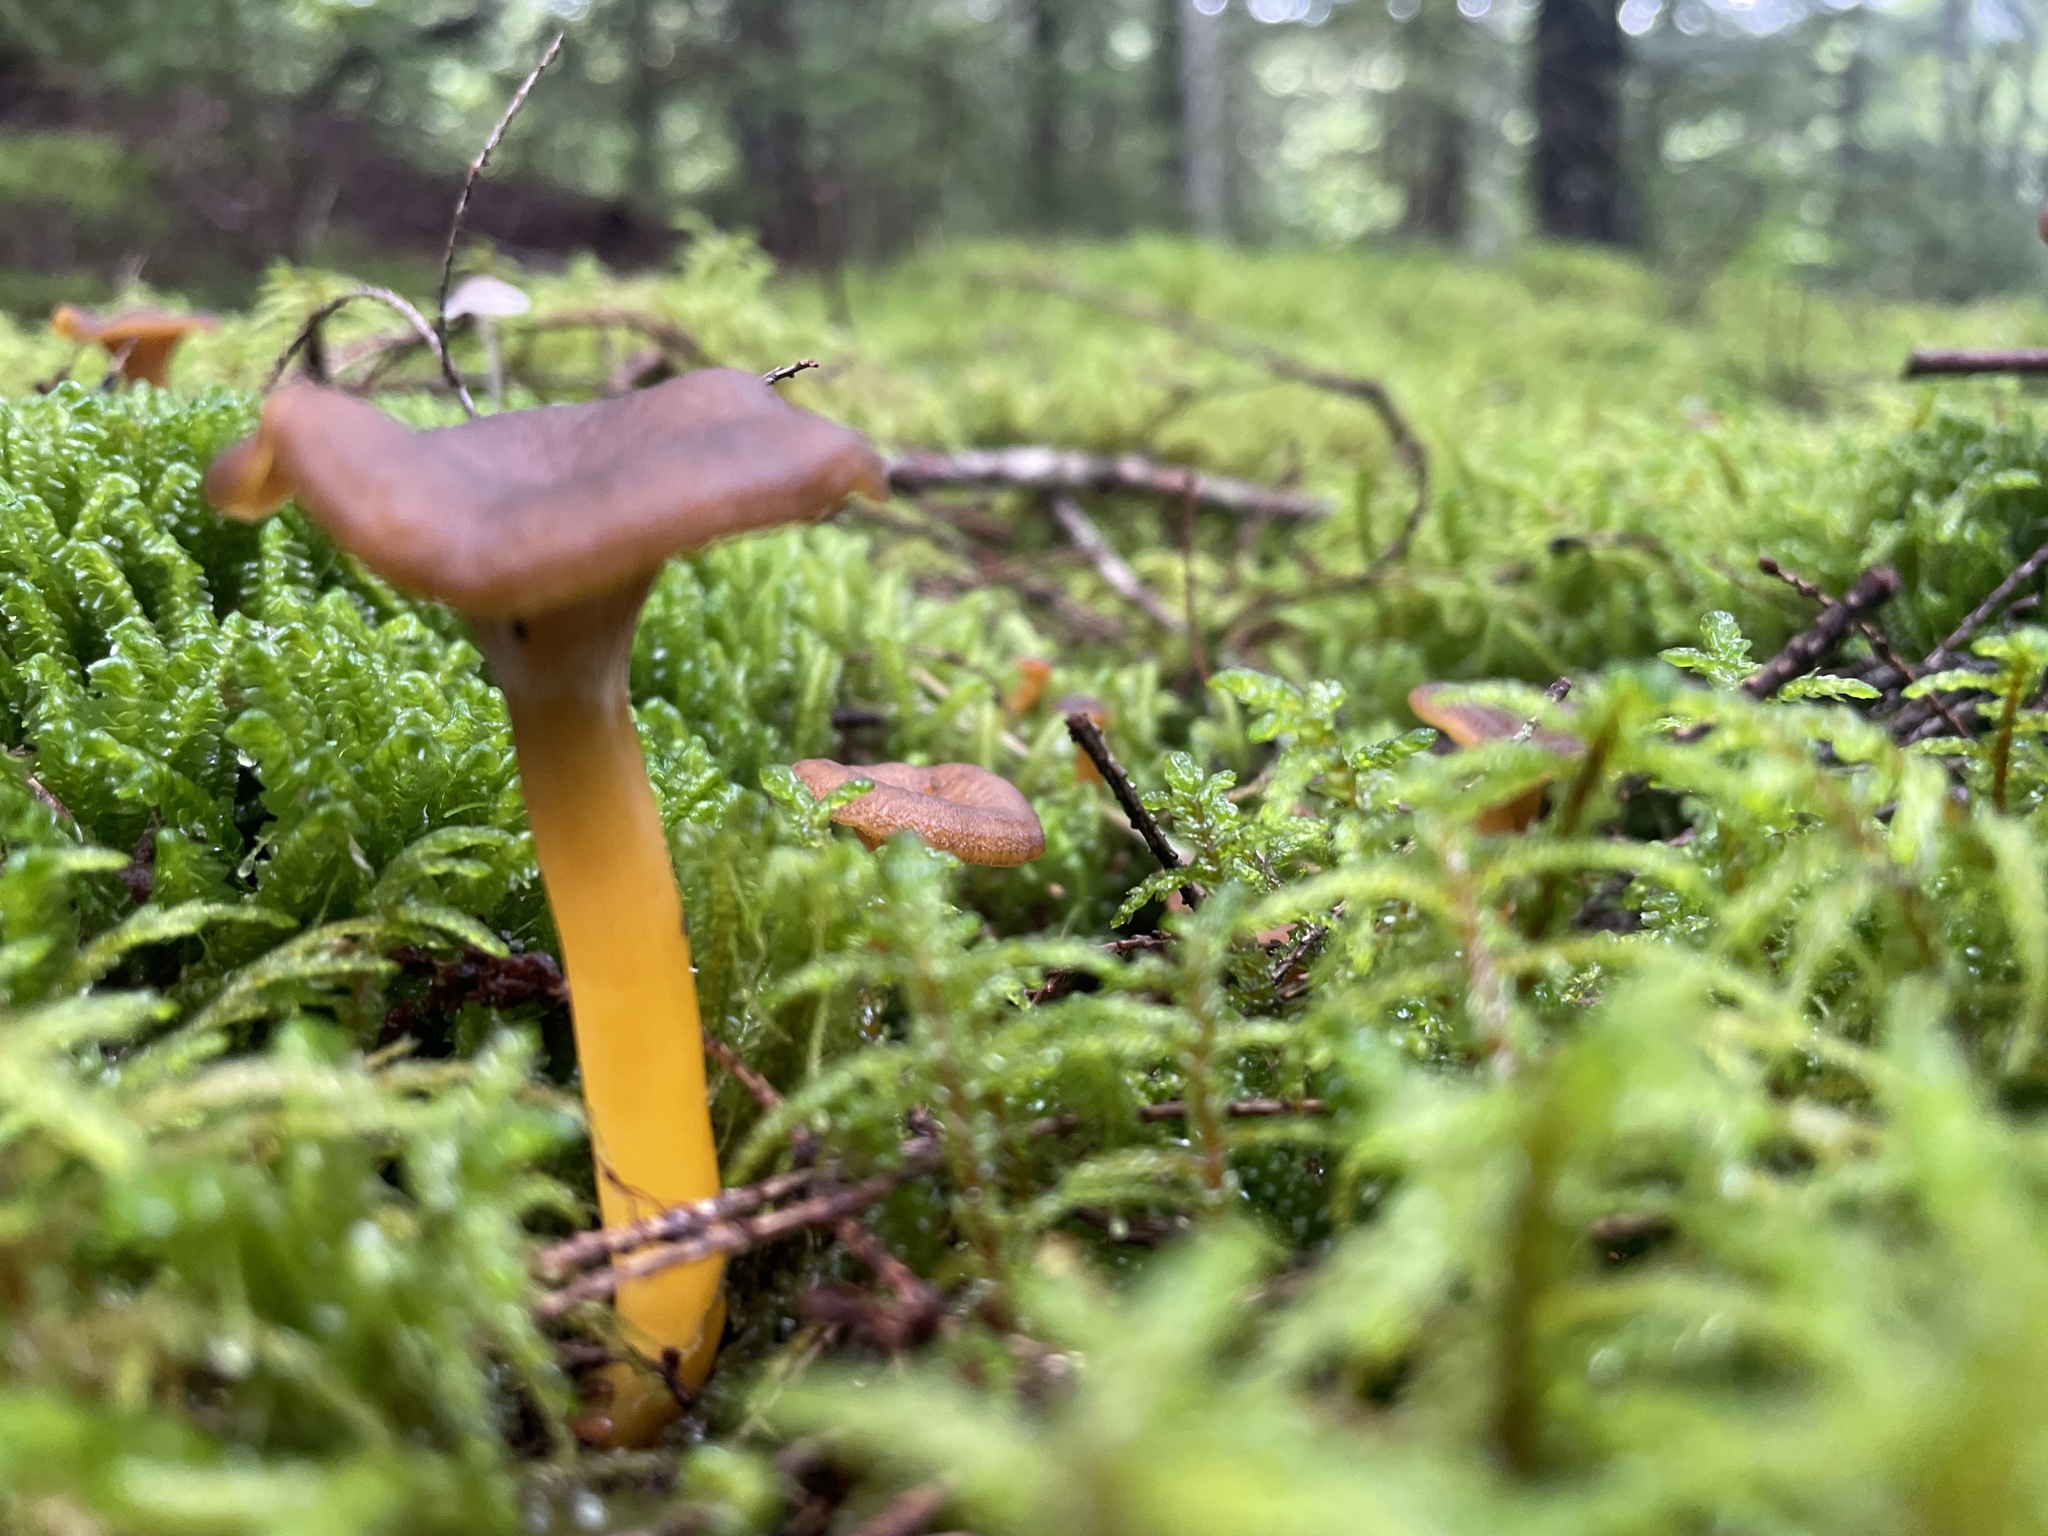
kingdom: Fungi
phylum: Basidiomycota
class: Agaricomycetes
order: Cantharellales
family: Hydnaceae
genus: Craterellus
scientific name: Craterellus tubaeformis
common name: Yellowfoot
